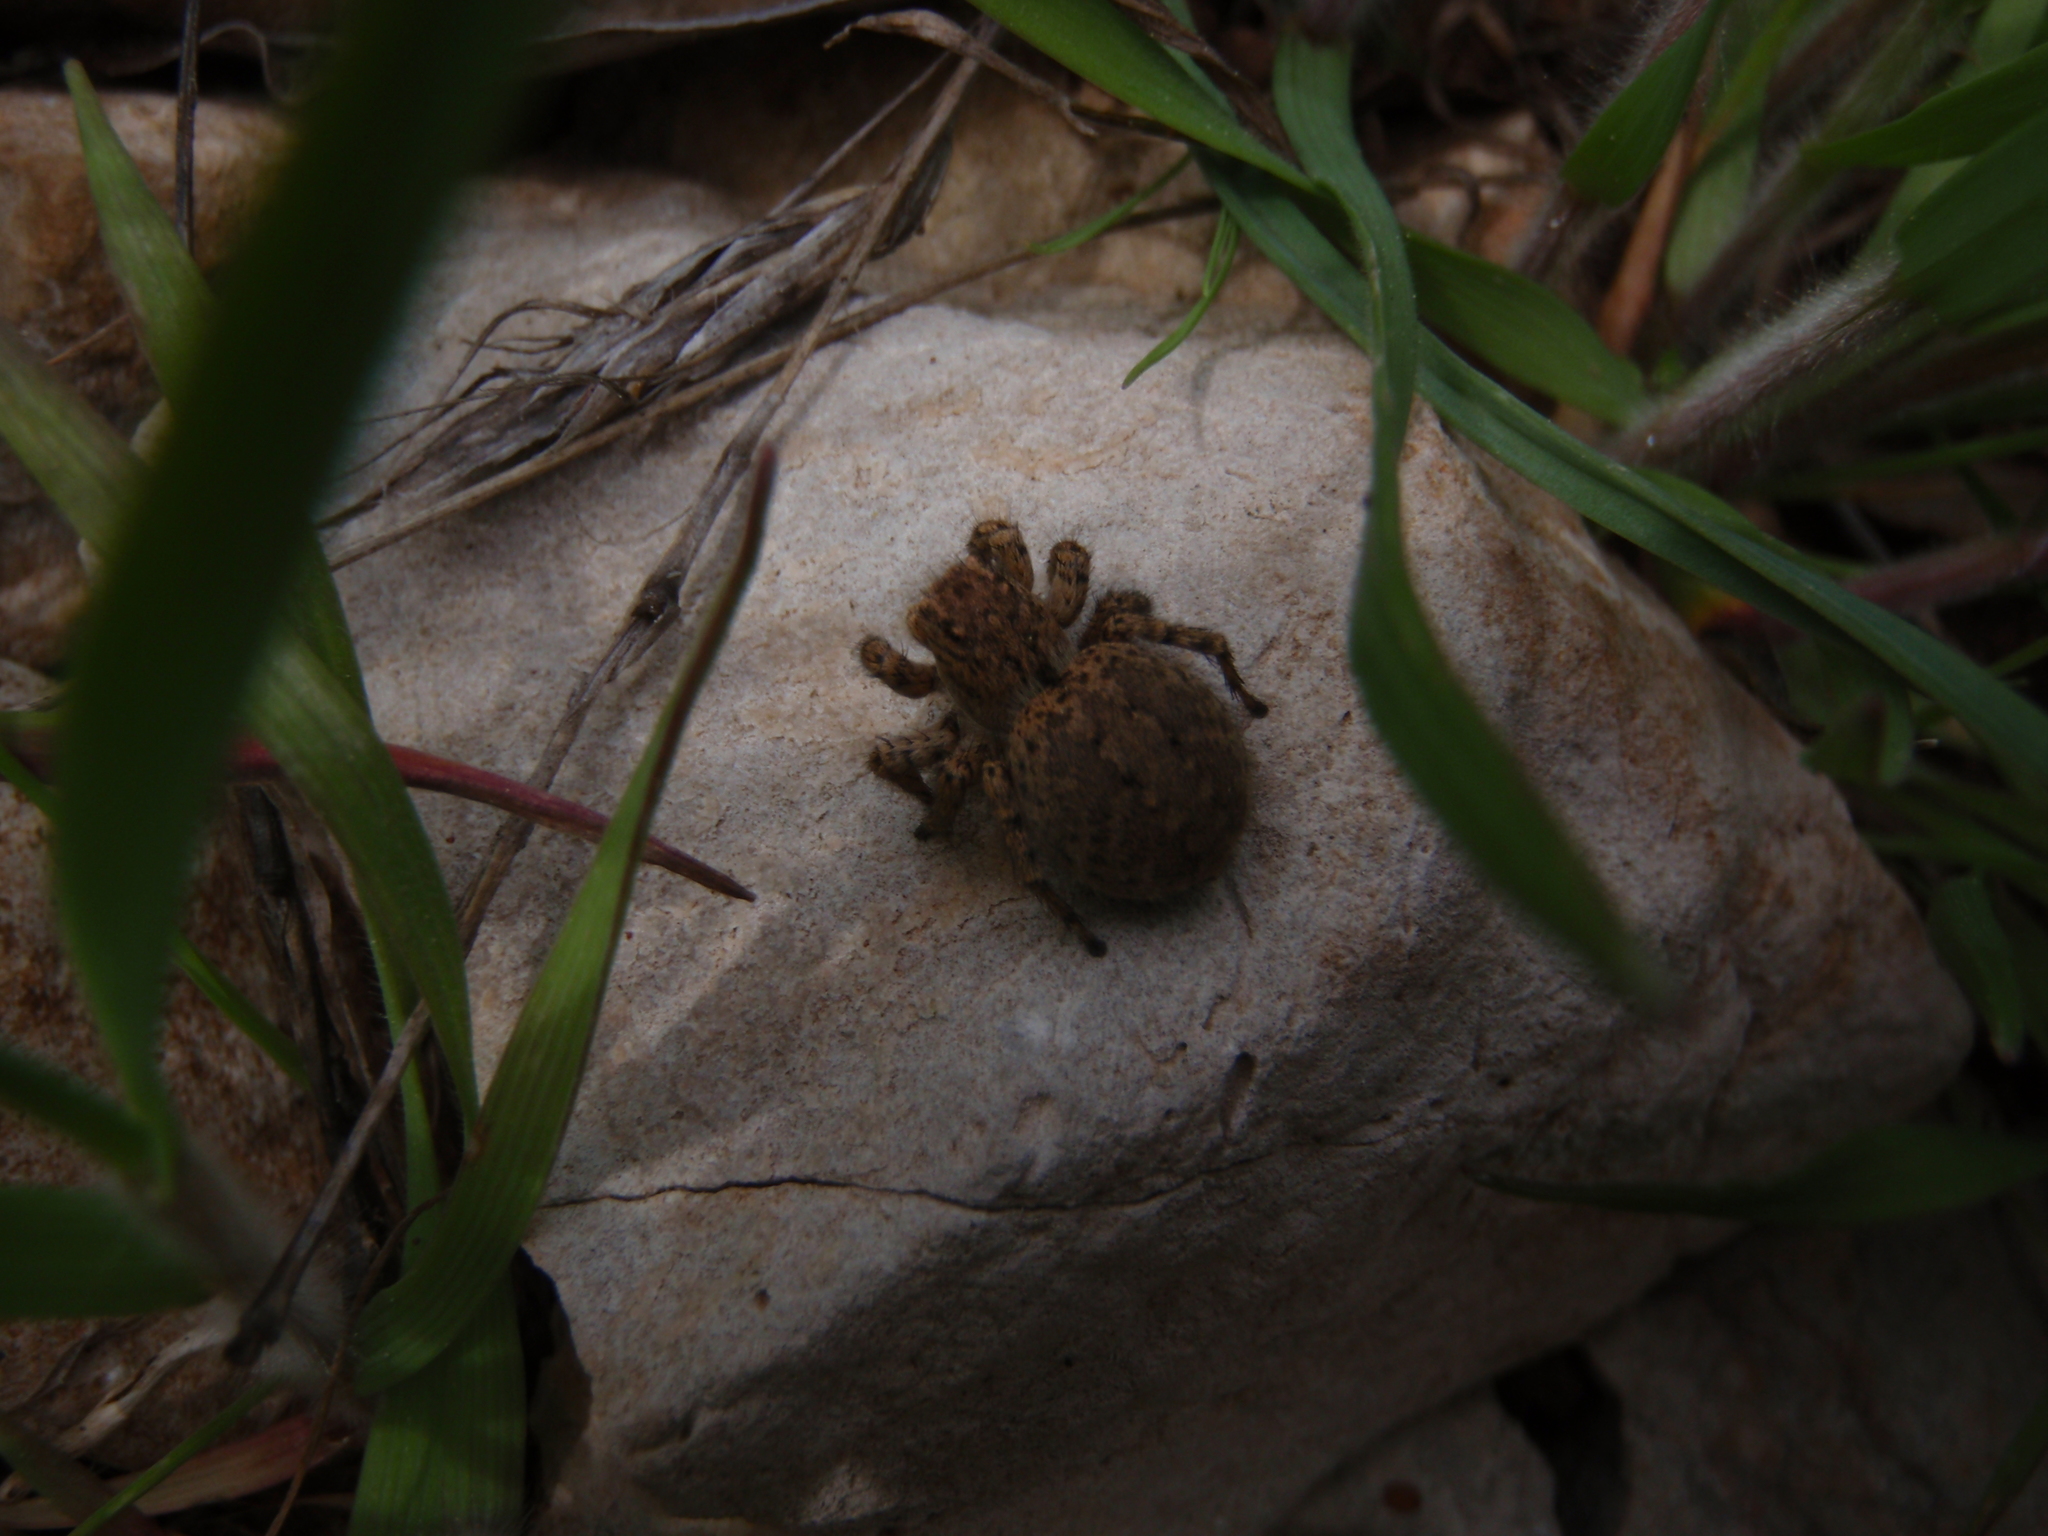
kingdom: Animalia
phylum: Arthropoda
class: Arachnida
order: Araneae
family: Salticidae
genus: Aelurillus
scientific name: Aelurillus v-insignitus
